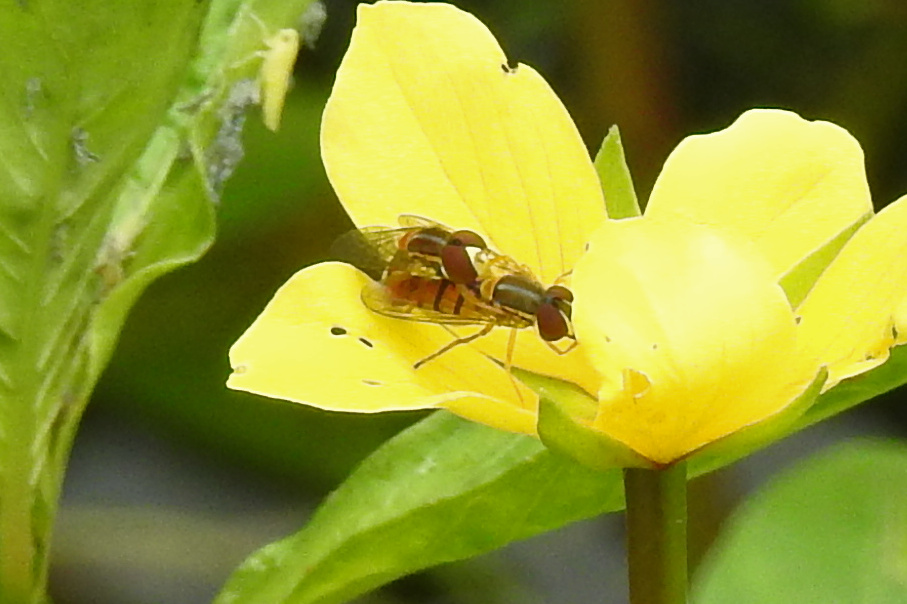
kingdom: Animalia
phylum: Arthropoda
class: Insecta
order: Diptera
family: Syrphidae
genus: Toxomerus
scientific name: Toxomerus jussiaeae
